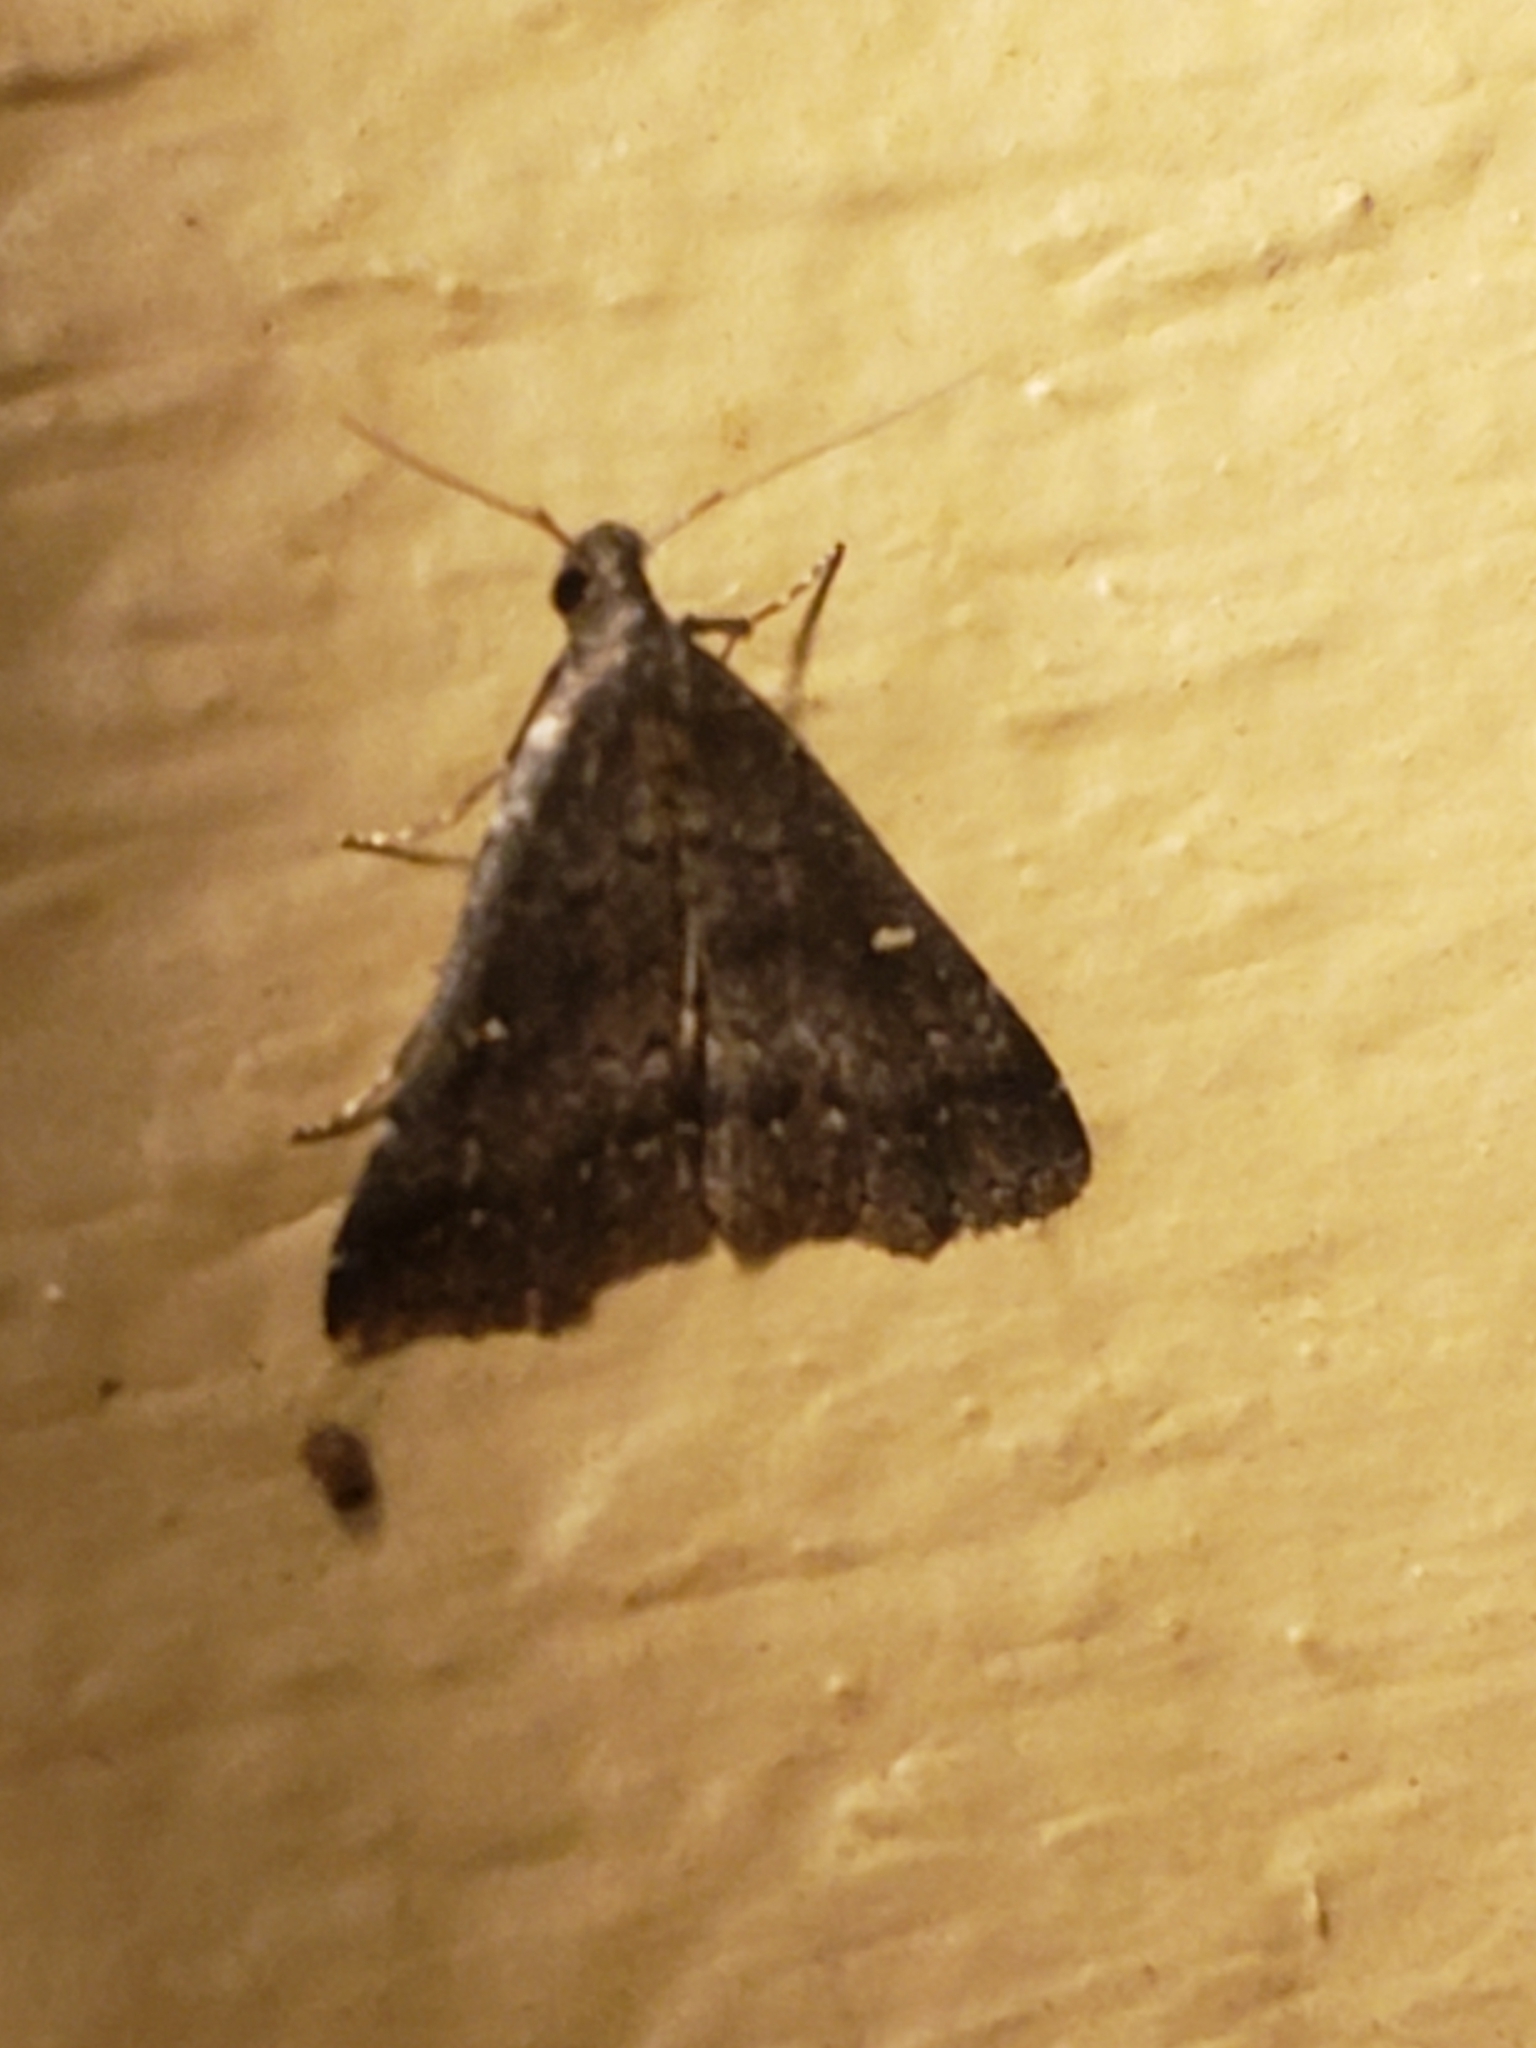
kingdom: Animalia
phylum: Arthropoda
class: Insecta
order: Lepidoptera
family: Erebidae
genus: Tetanolita
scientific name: Tetanolita mynesalis
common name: Smoky tetanolita moth
